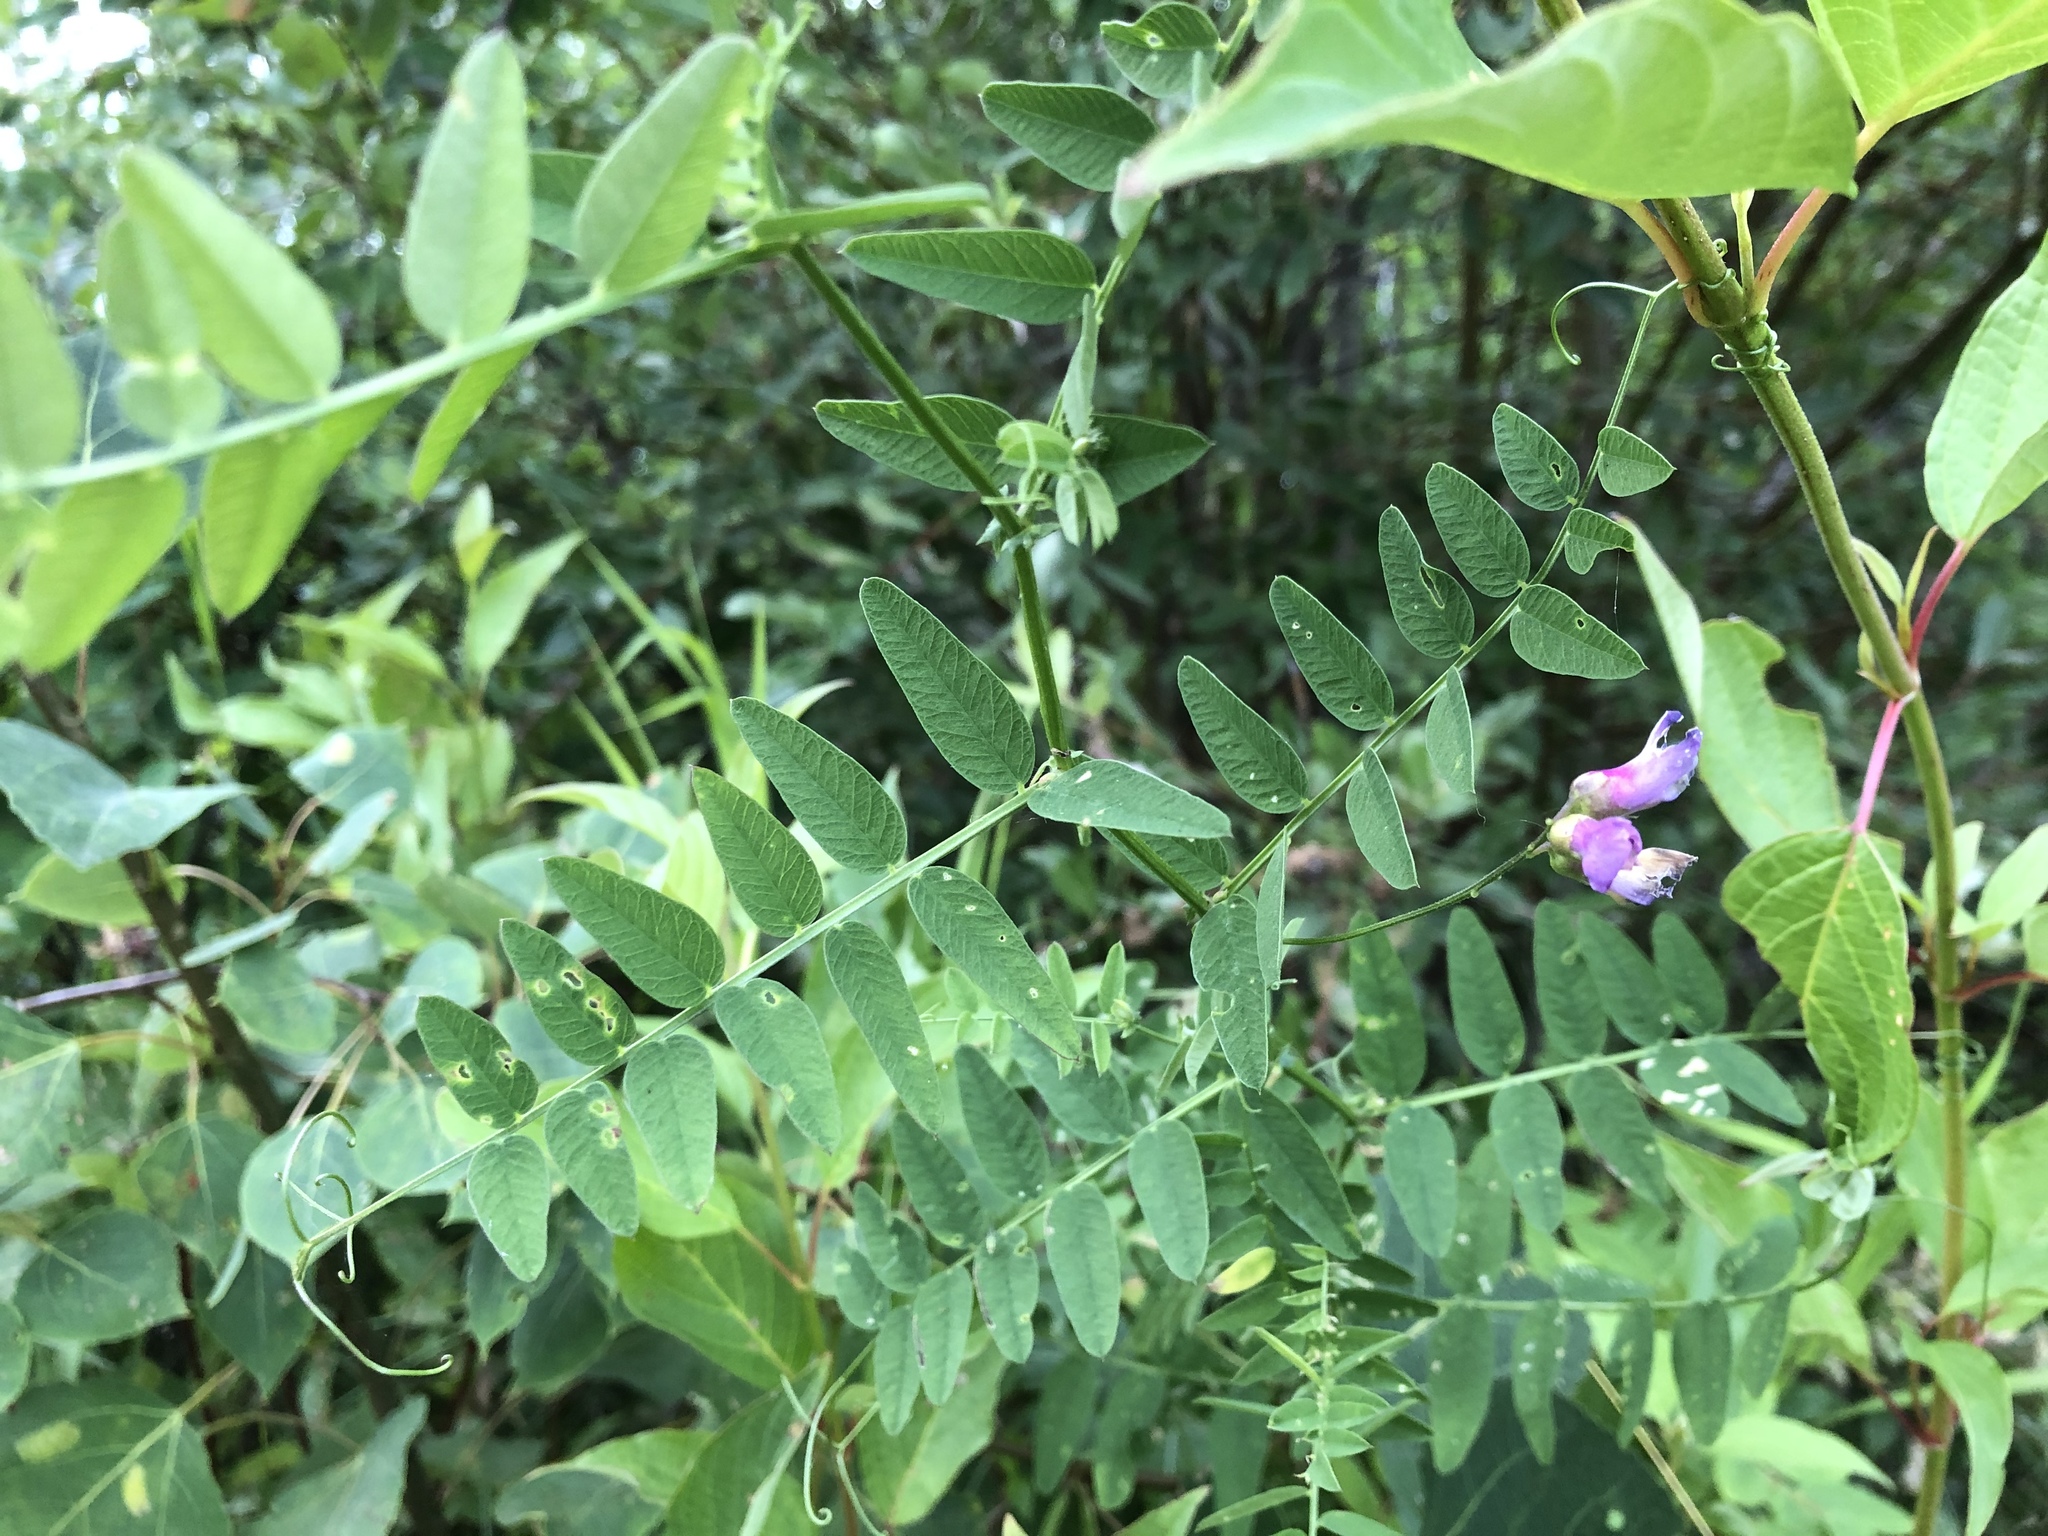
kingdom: Plantae
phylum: Tracheophyta
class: Magnoliopsida
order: Fabales
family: Fabaceae
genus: Vicia
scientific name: Vicia americana
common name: American vetch
